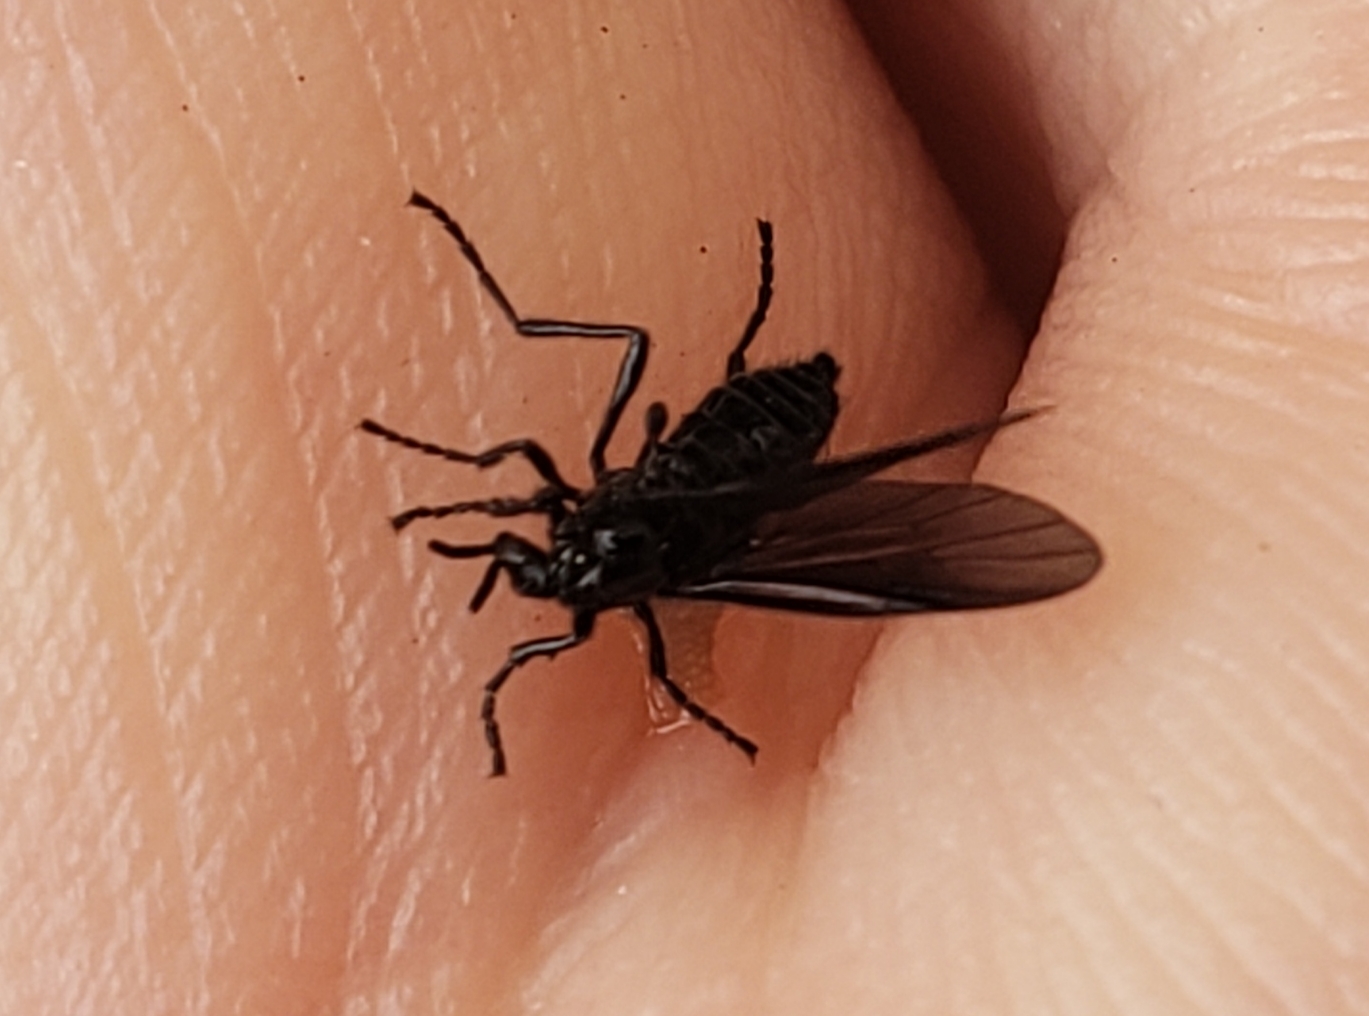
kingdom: Animalia
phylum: Arthropoda
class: Insecta
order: Diptera
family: Bibionidae
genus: Dilophus
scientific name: Dilophus orbatus
